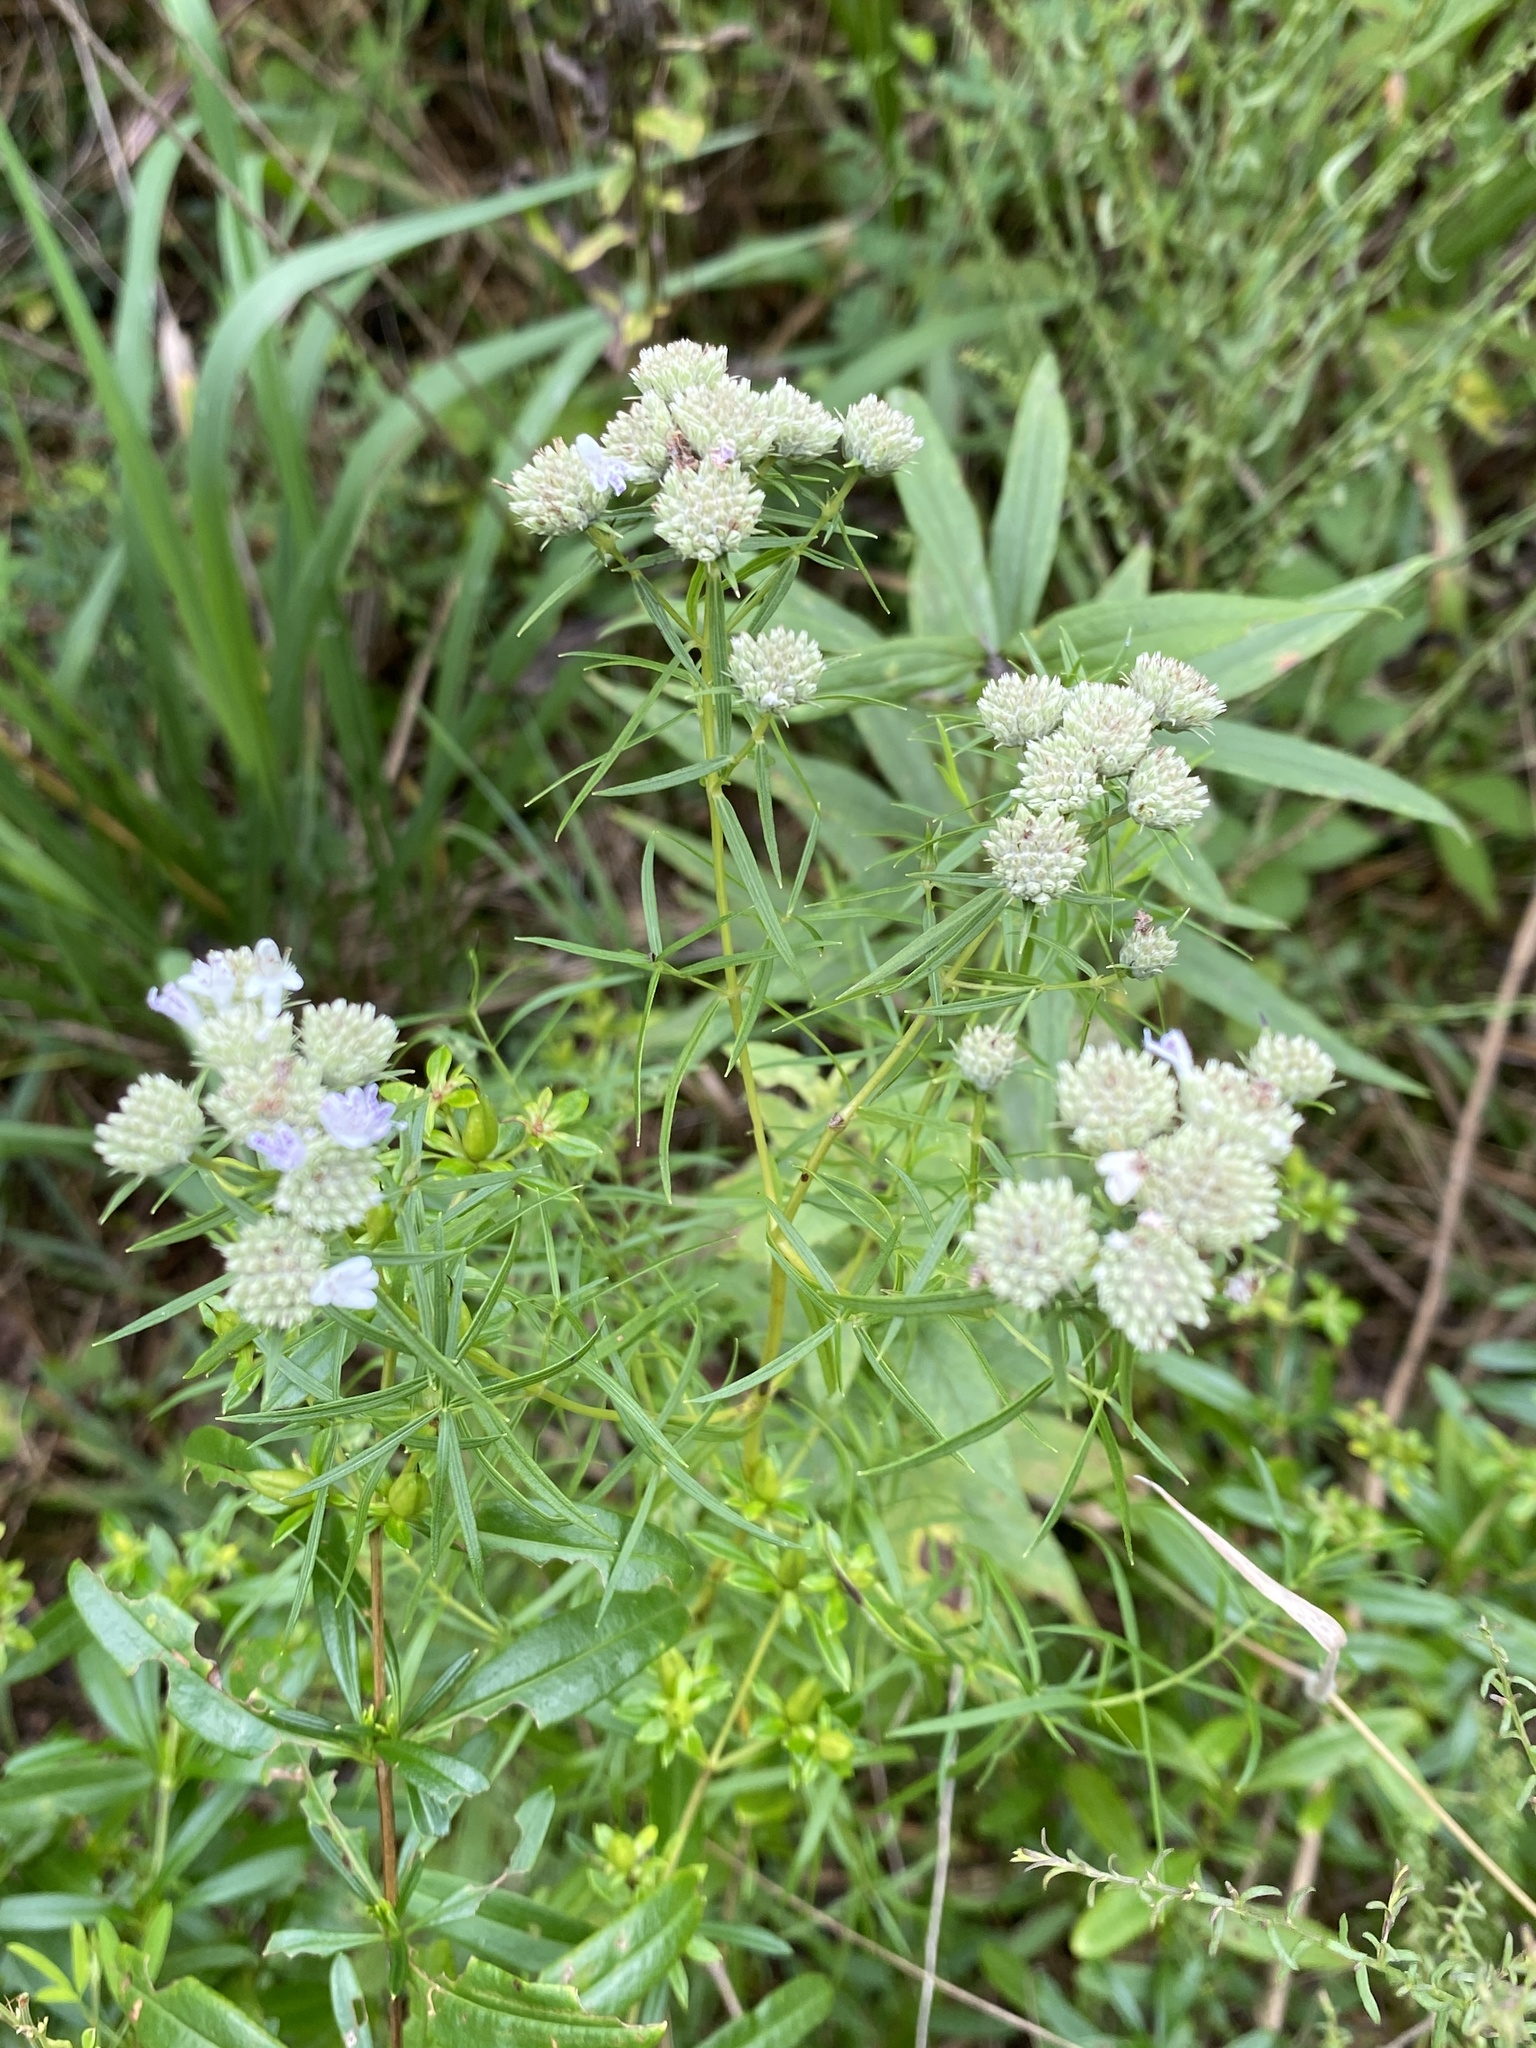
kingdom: Plantae
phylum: Tracheophyta
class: Magnoliopsida
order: Lamiales
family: Lamiaceae
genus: Pycnanthemum
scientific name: Pycnanthemum tenuifolium
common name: Narrow-leaf mountain-mint
